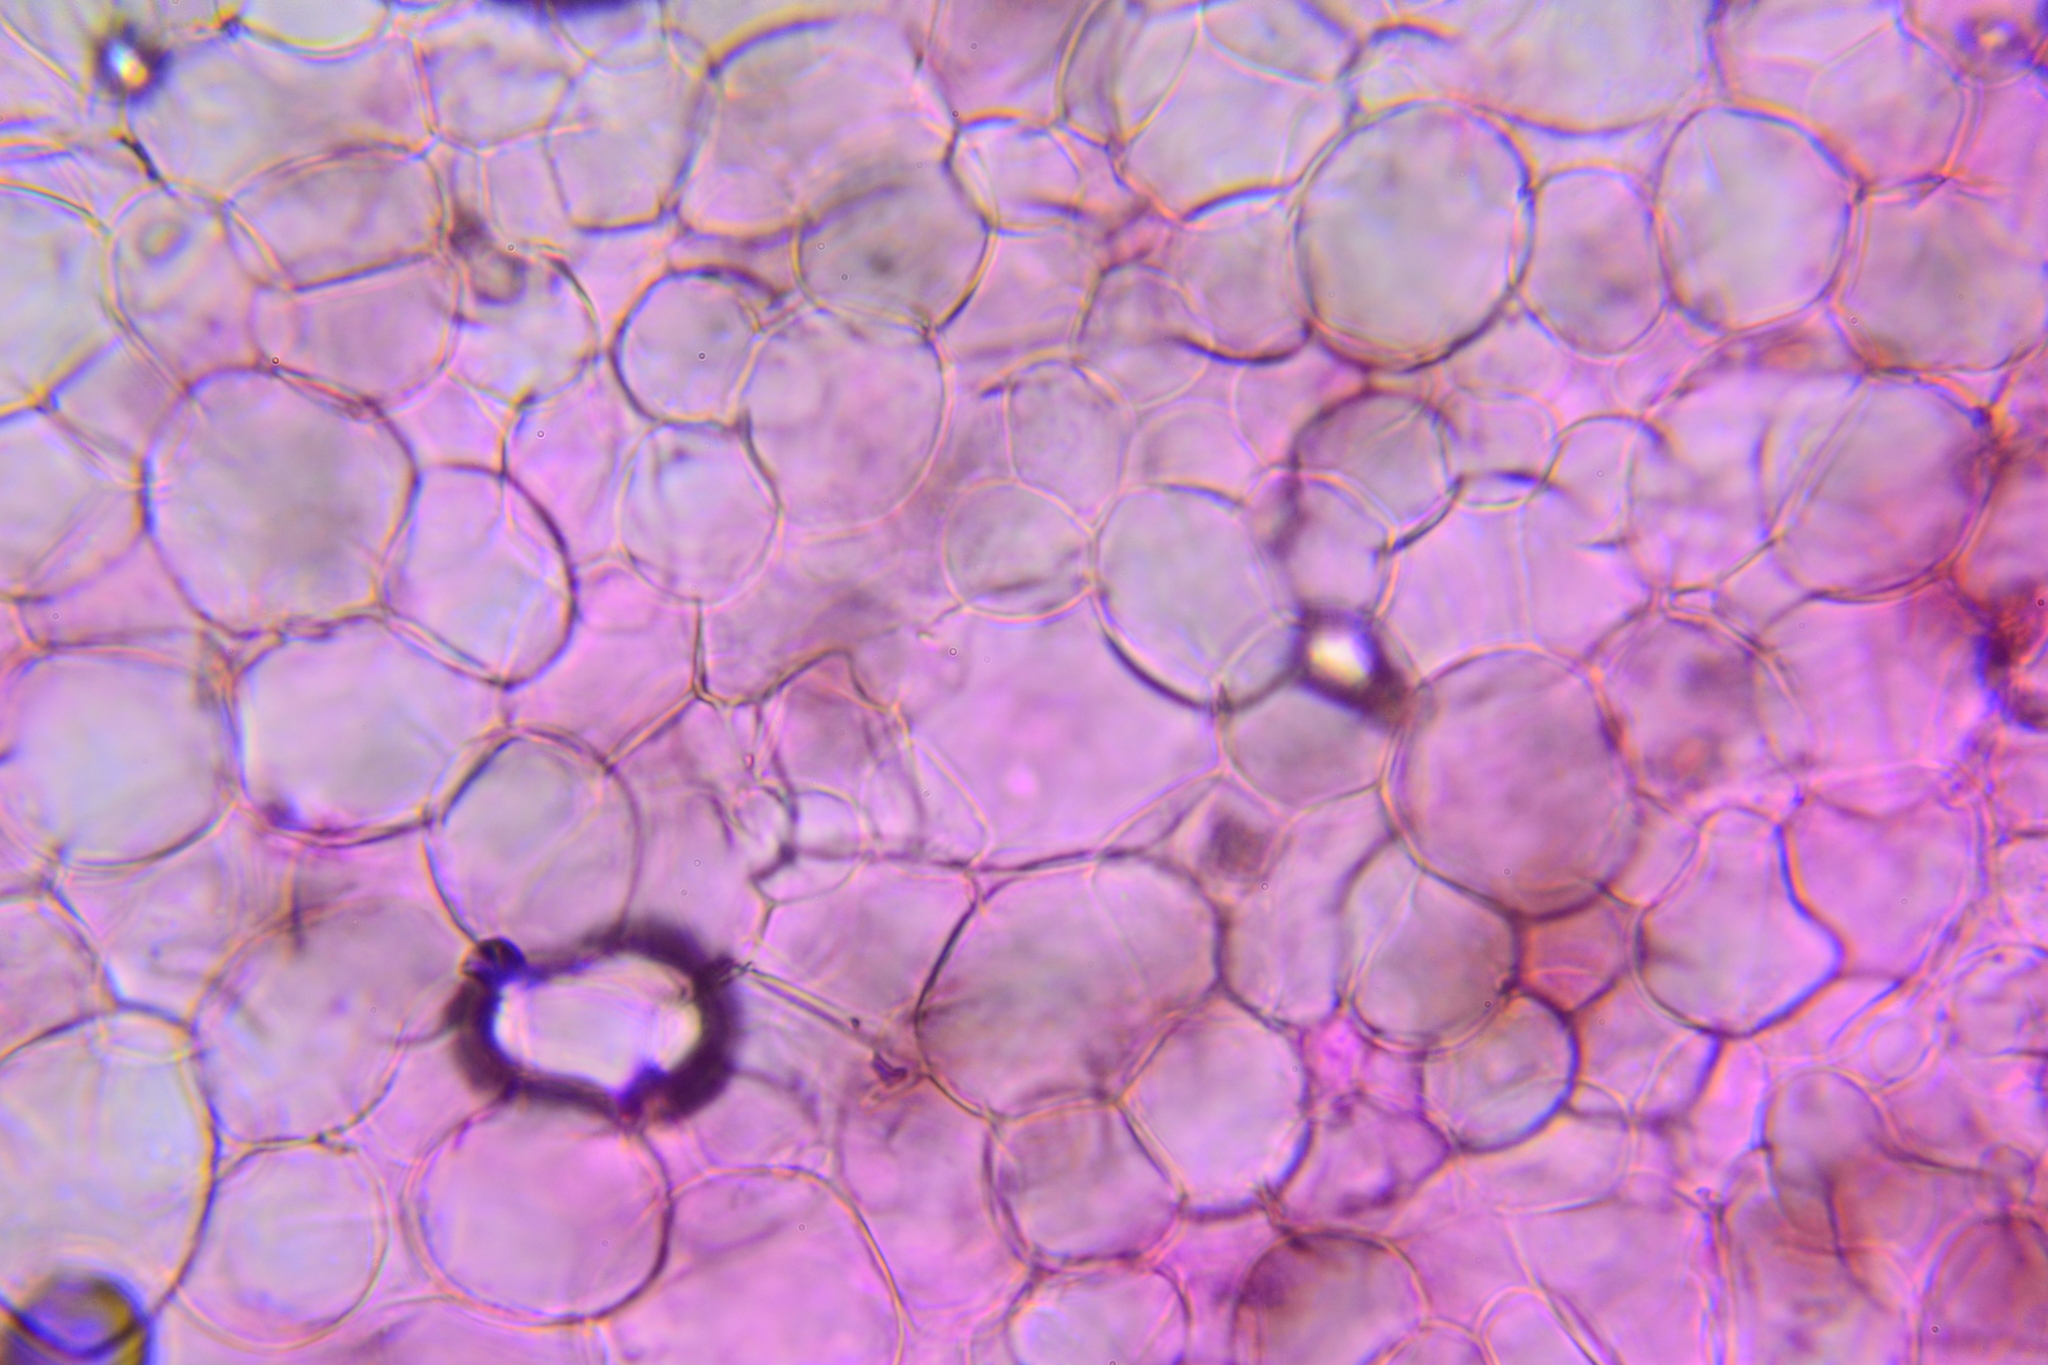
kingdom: Fungi
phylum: Basidiomycota
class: Agaricomycetes
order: Agaricales
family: Psathyrellaceae
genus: Psathyrella
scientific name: Psathyrella psammophila
